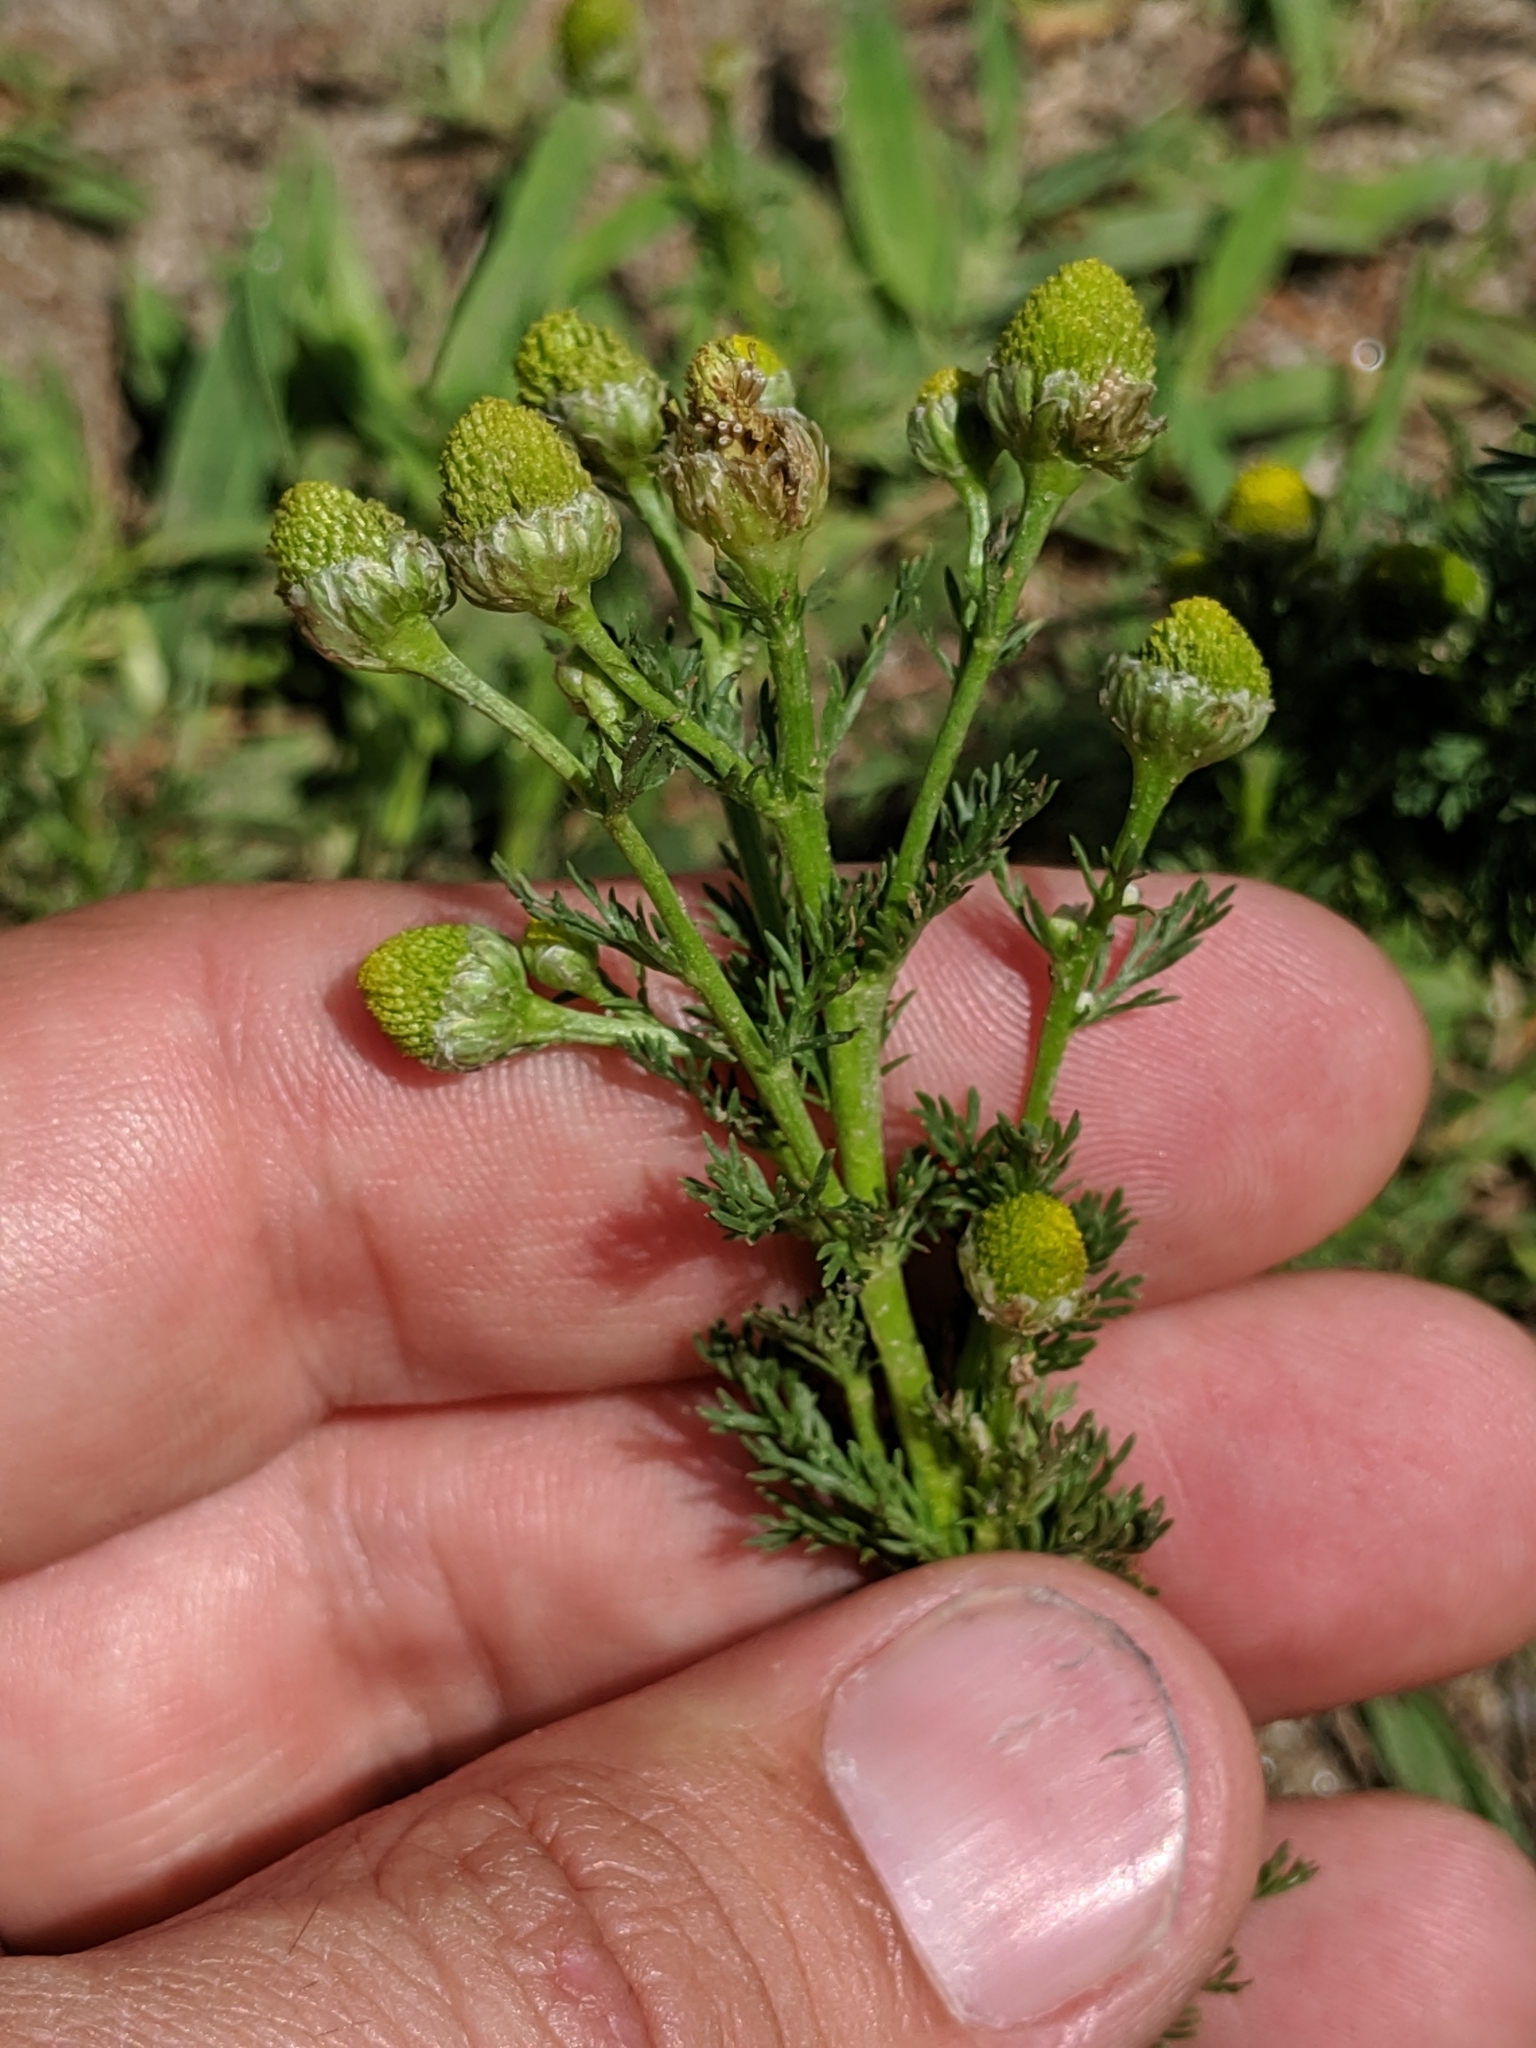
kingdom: Plantae
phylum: Tracheophyta
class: Magnoliopsida
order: Asterales
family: Asteraceae
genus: Matricaria
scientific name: Matricaria discoidea
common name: Disc mayweed
